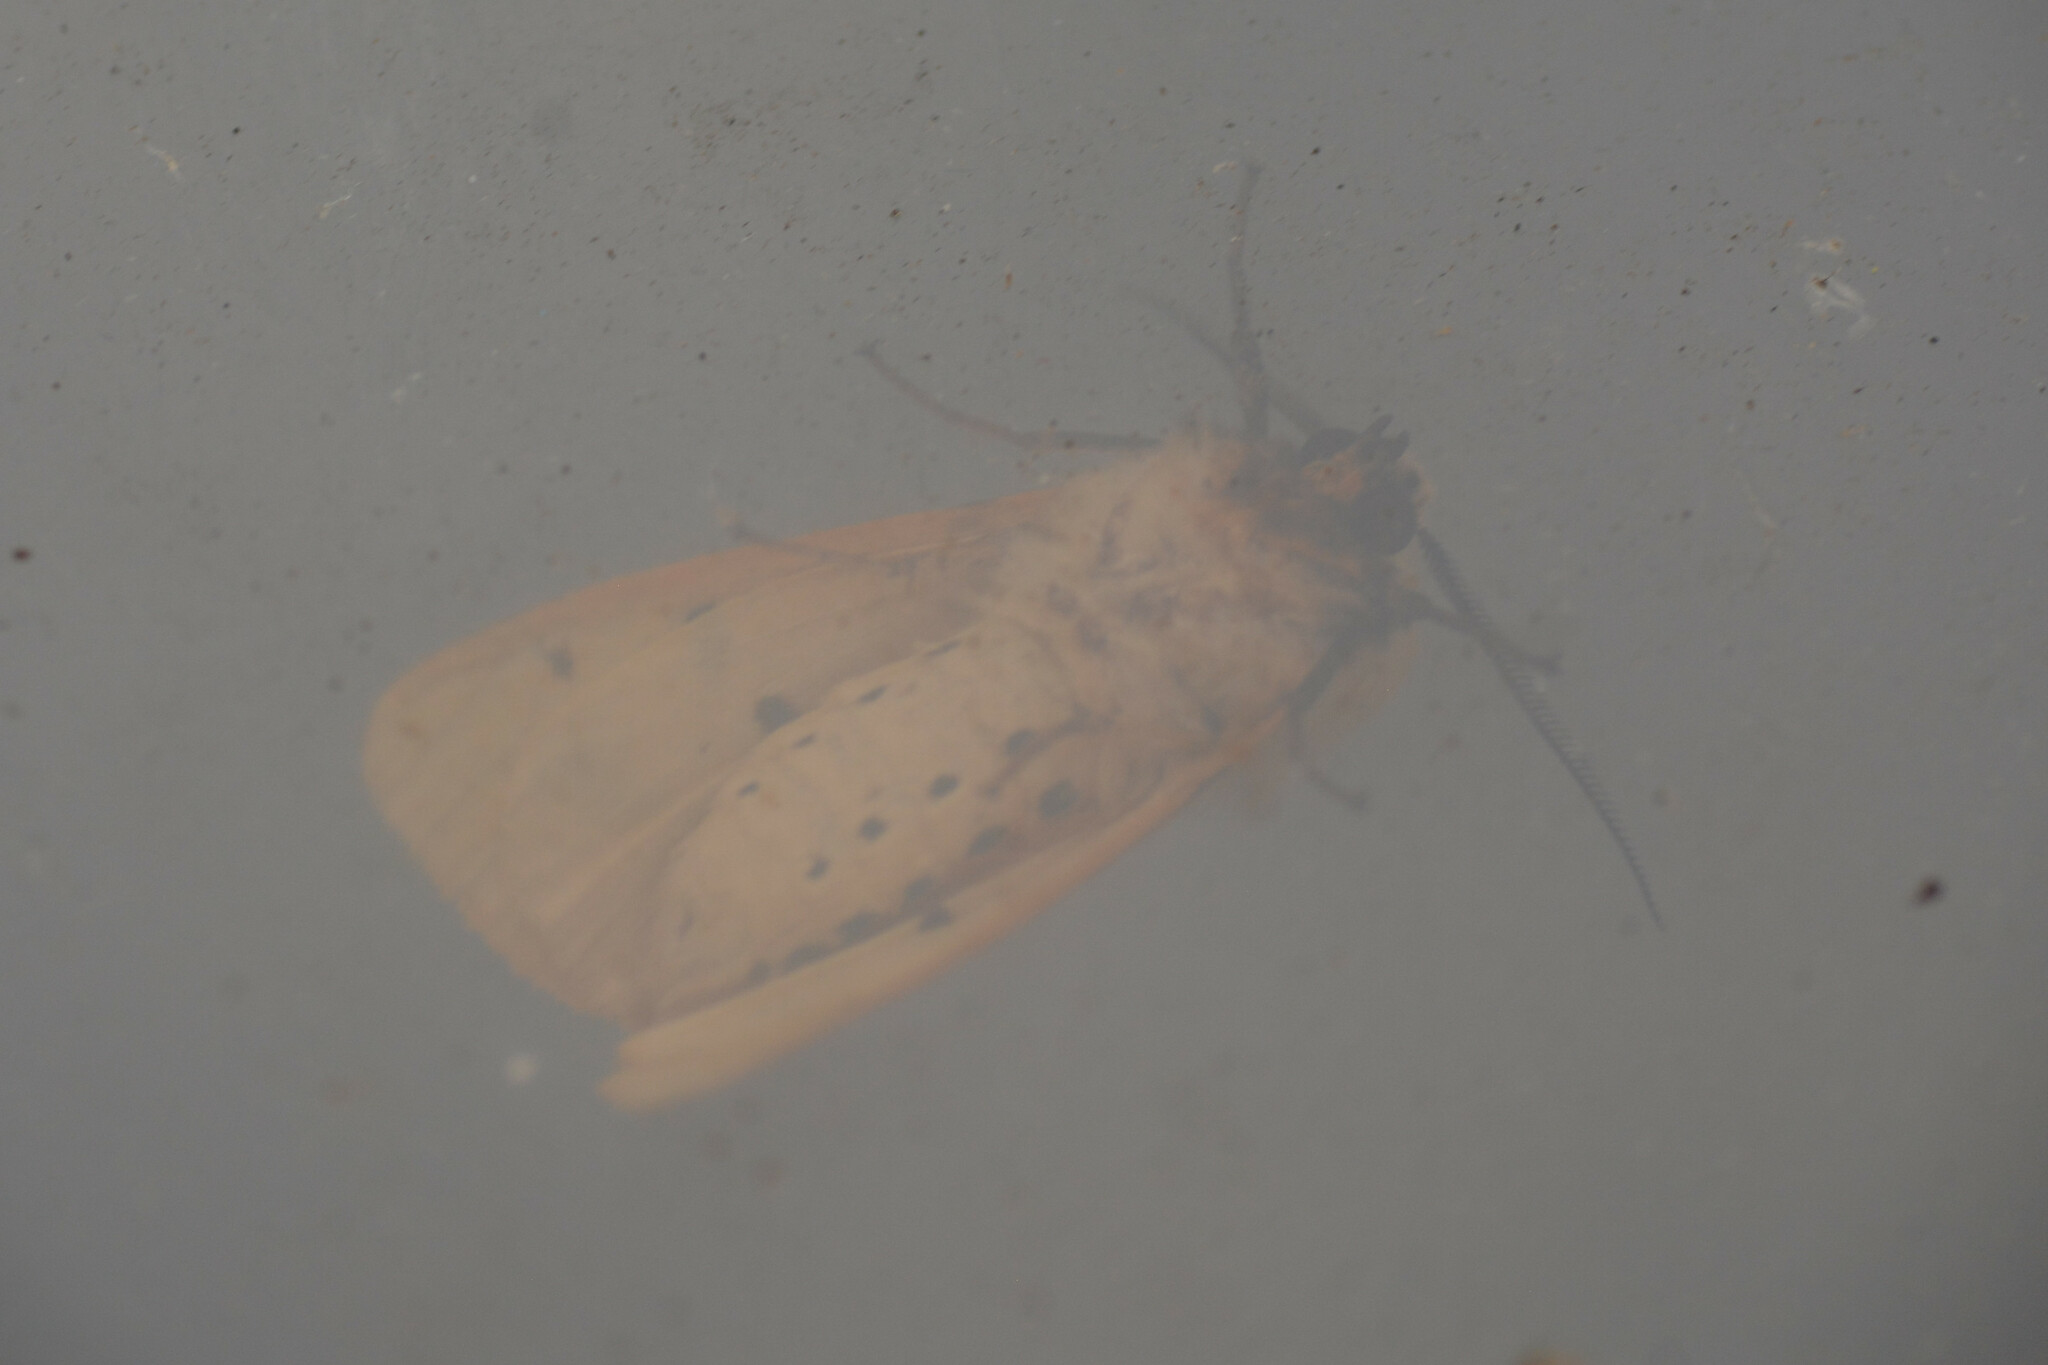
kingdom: Animalia
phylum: Arthropoda
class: Insecta
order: Lepidoptera
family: Erebidae
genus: Spilarctia
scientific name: Spilarctia lutea
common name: Buff ermine
